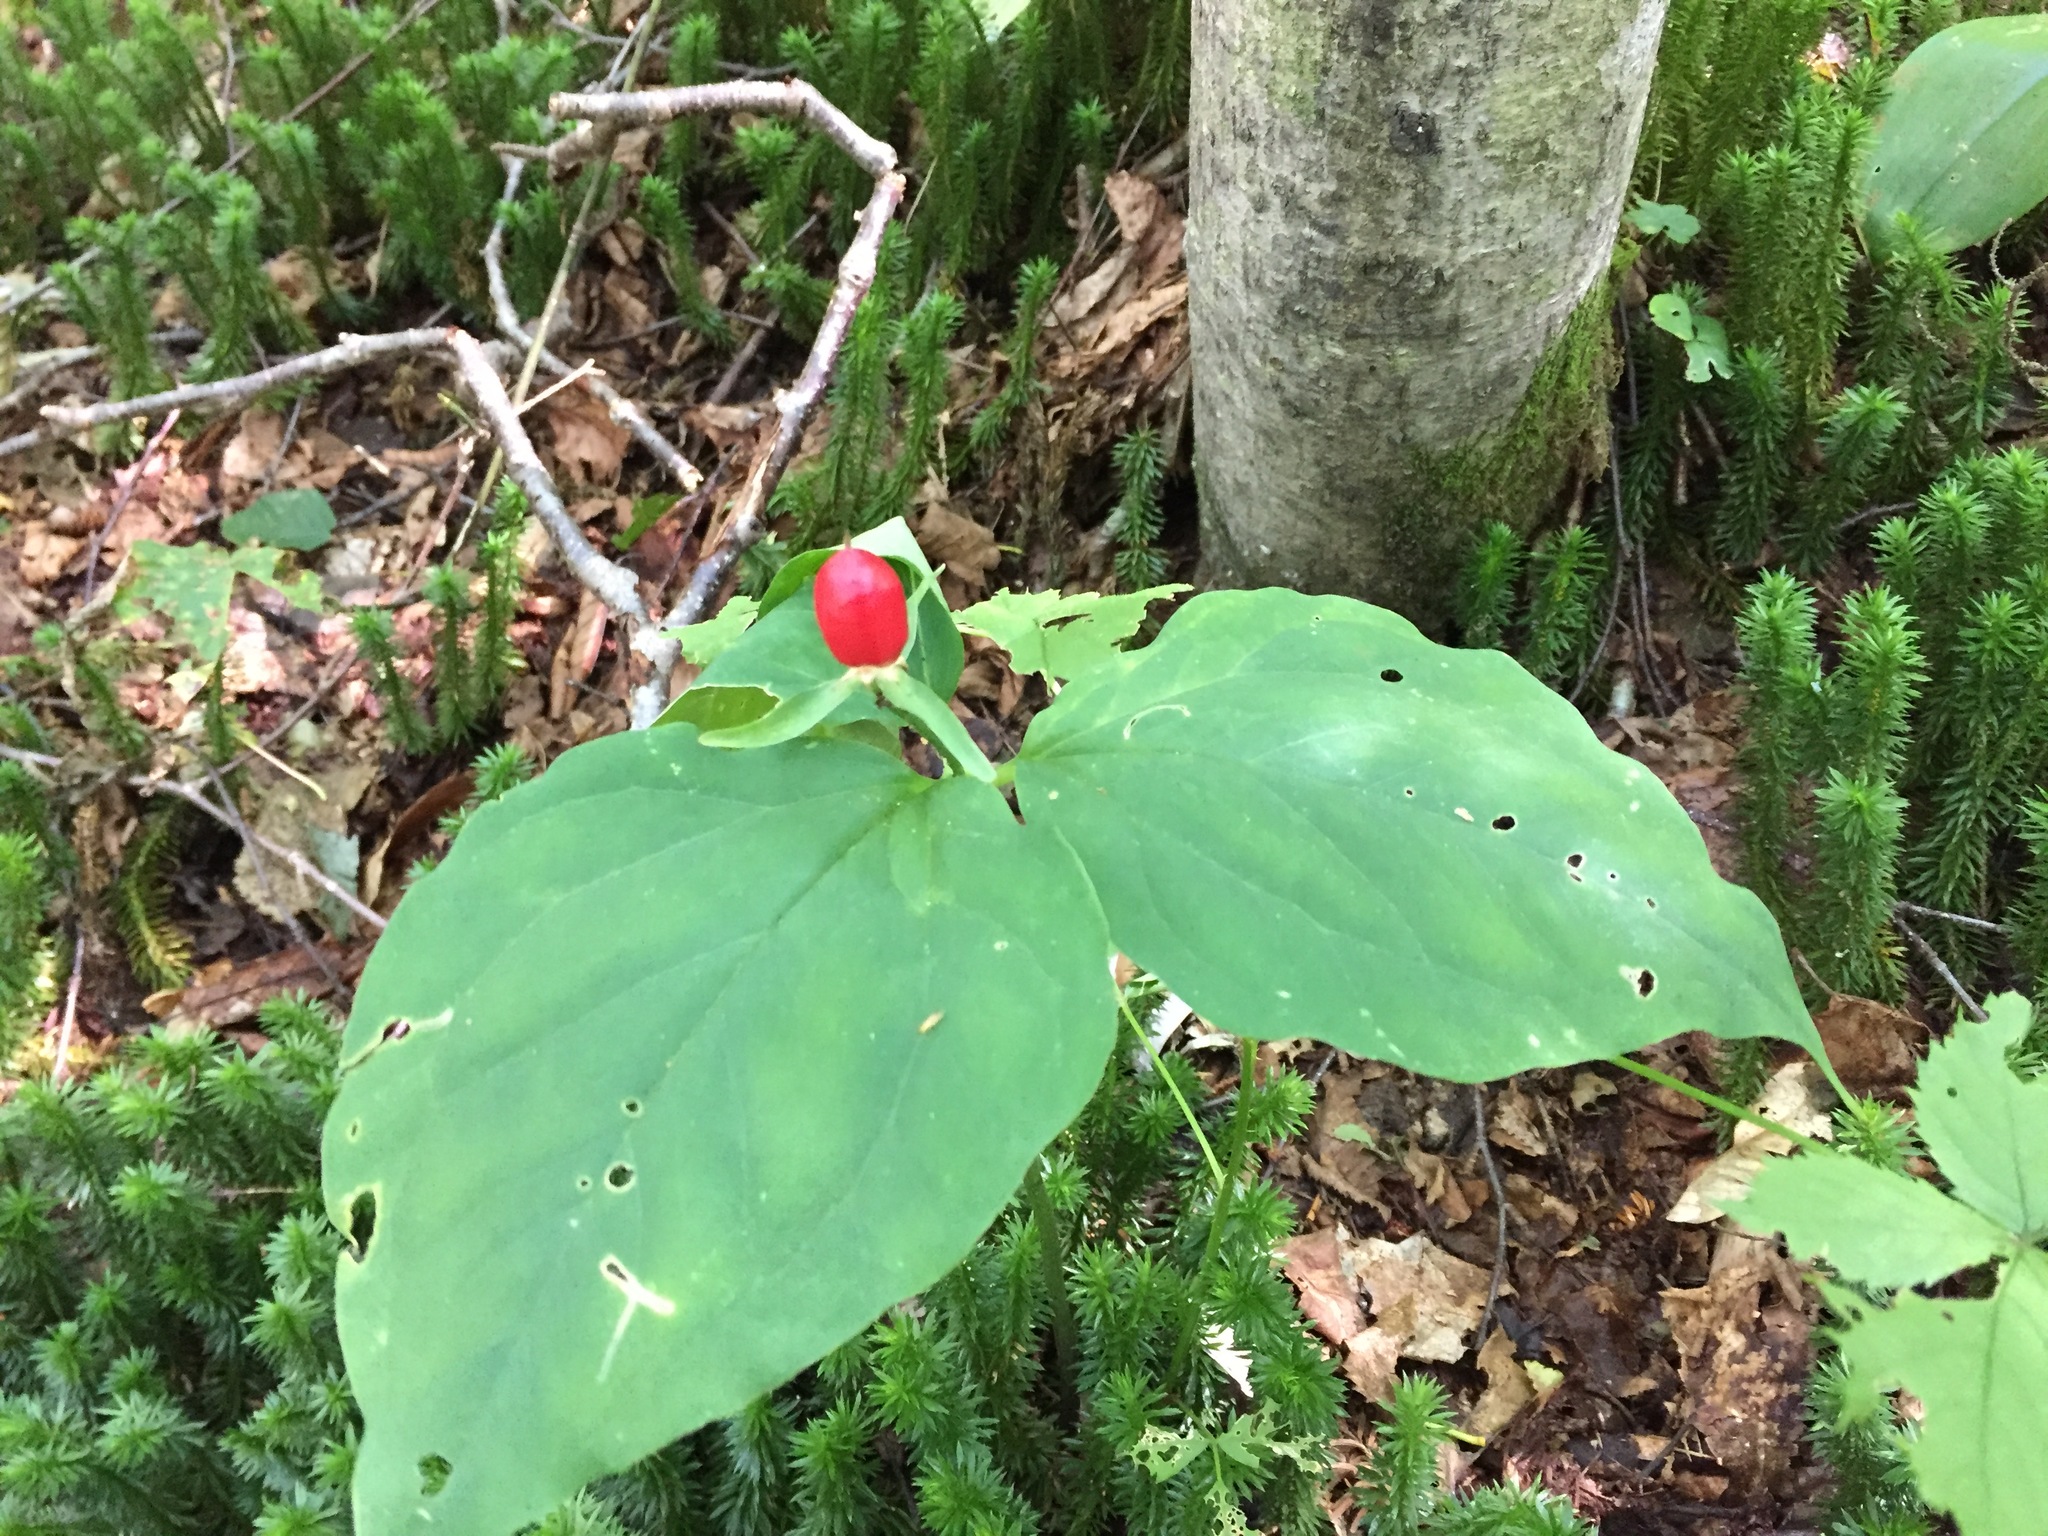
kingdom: Plantae
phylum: Tracheophyta
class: Liliopsida
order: Liliales
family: Melanthiaceae
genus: Trillium
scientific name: Trillium undulatum
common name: Paint trillium
